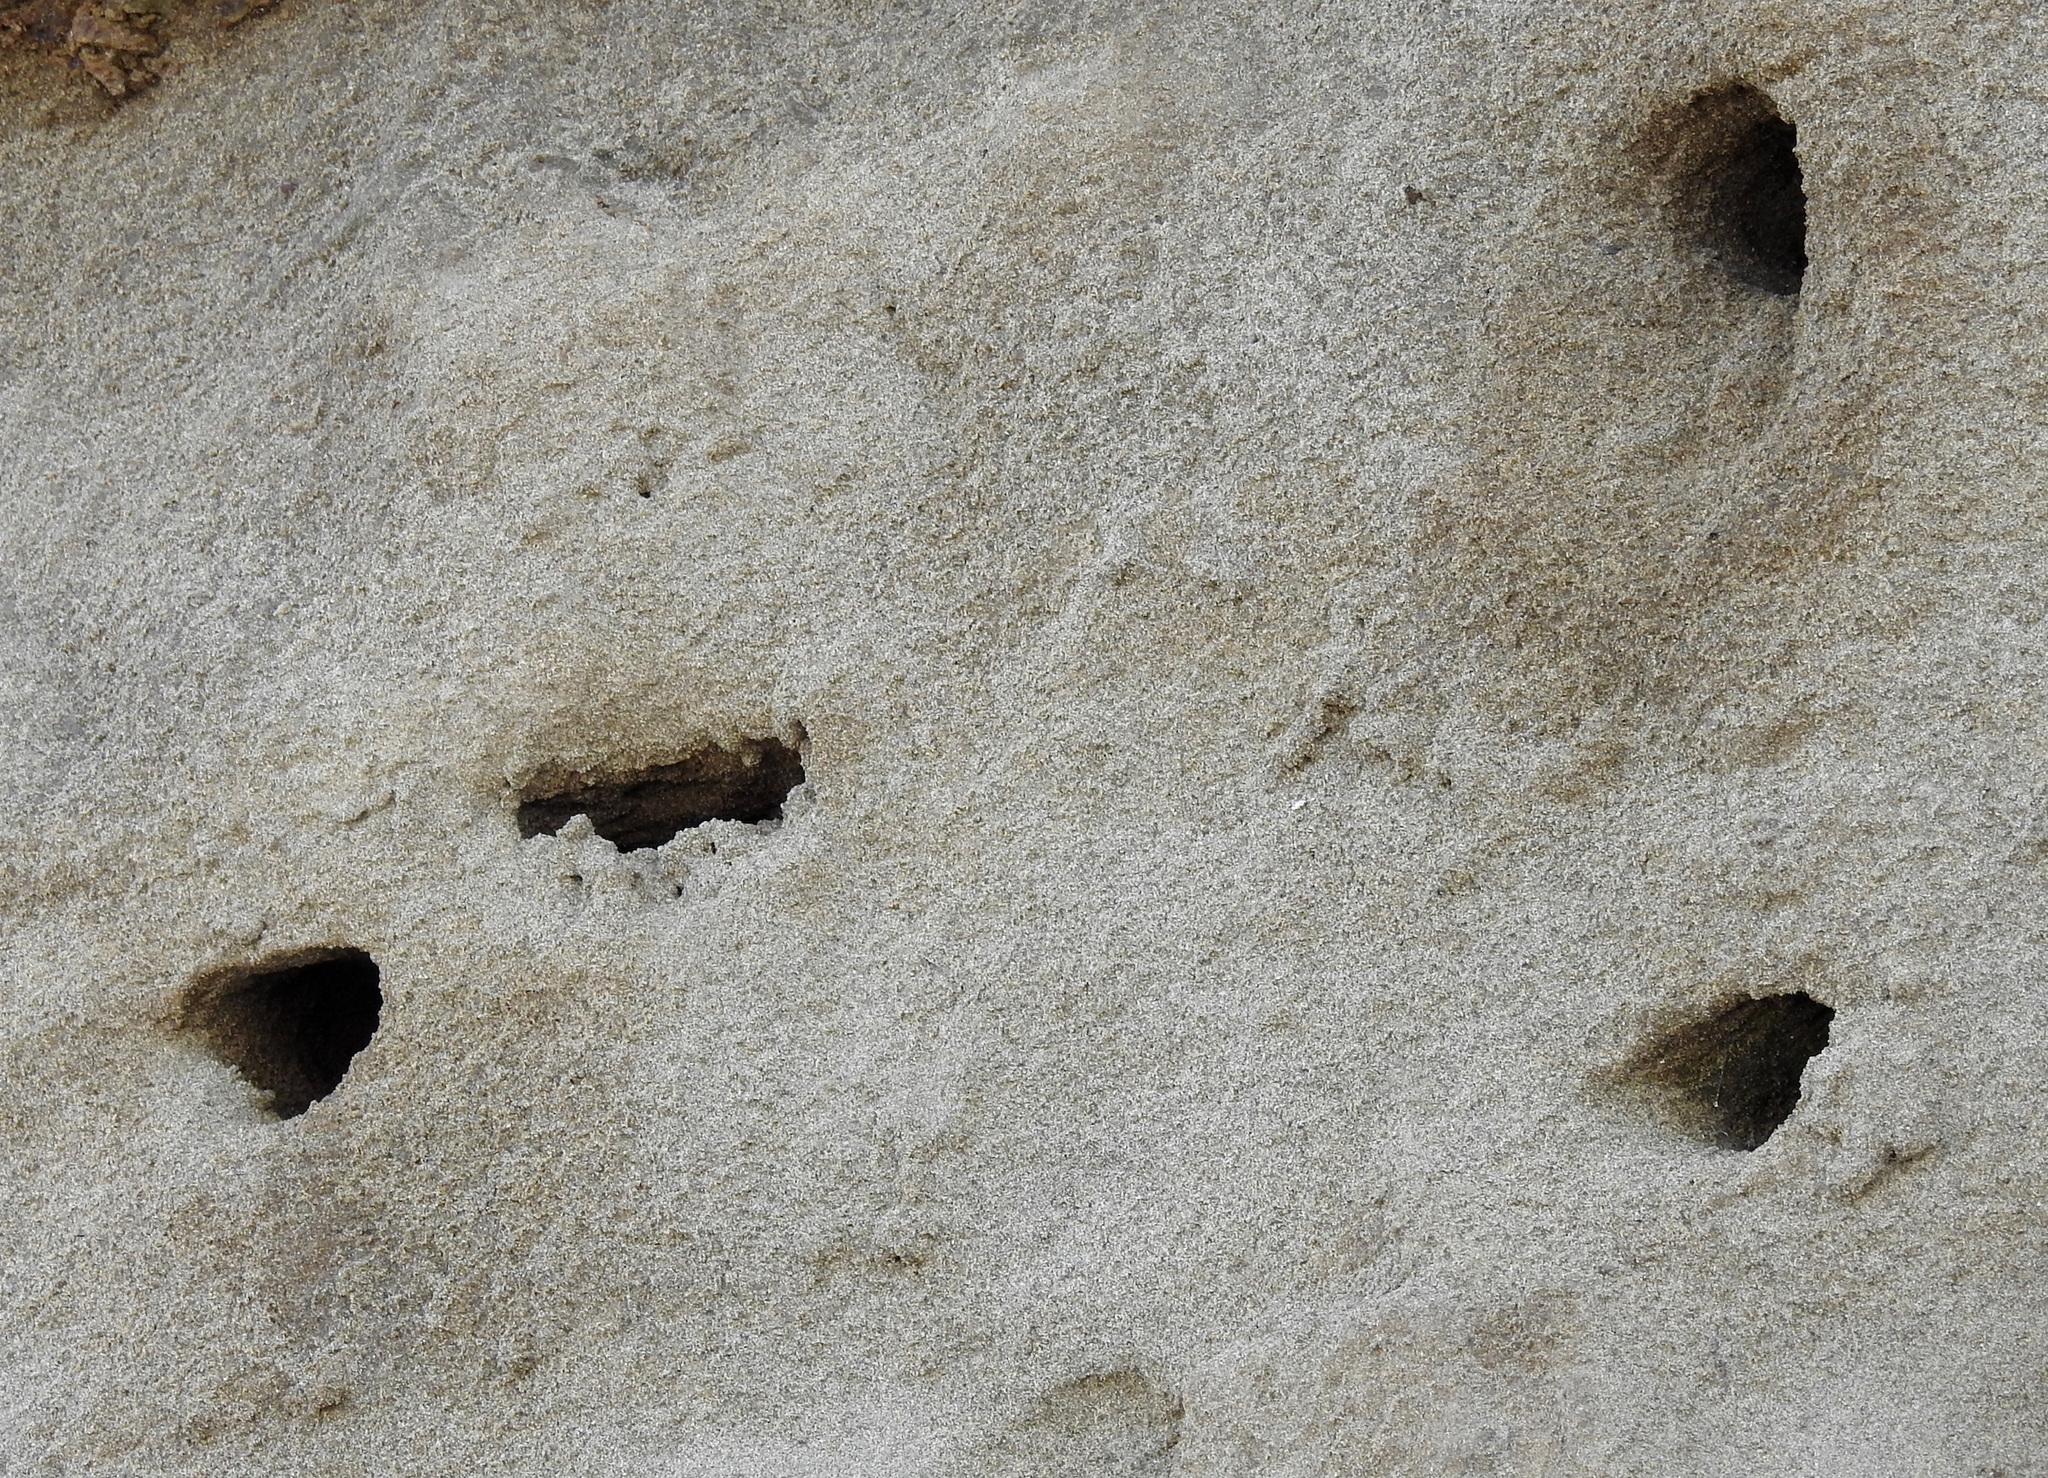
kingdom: Animalia
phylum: Chordata
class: Aves
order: Passeriformes
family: Hirundinidae
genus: Riparia
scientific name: Riparia riparia
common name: Sand martin
